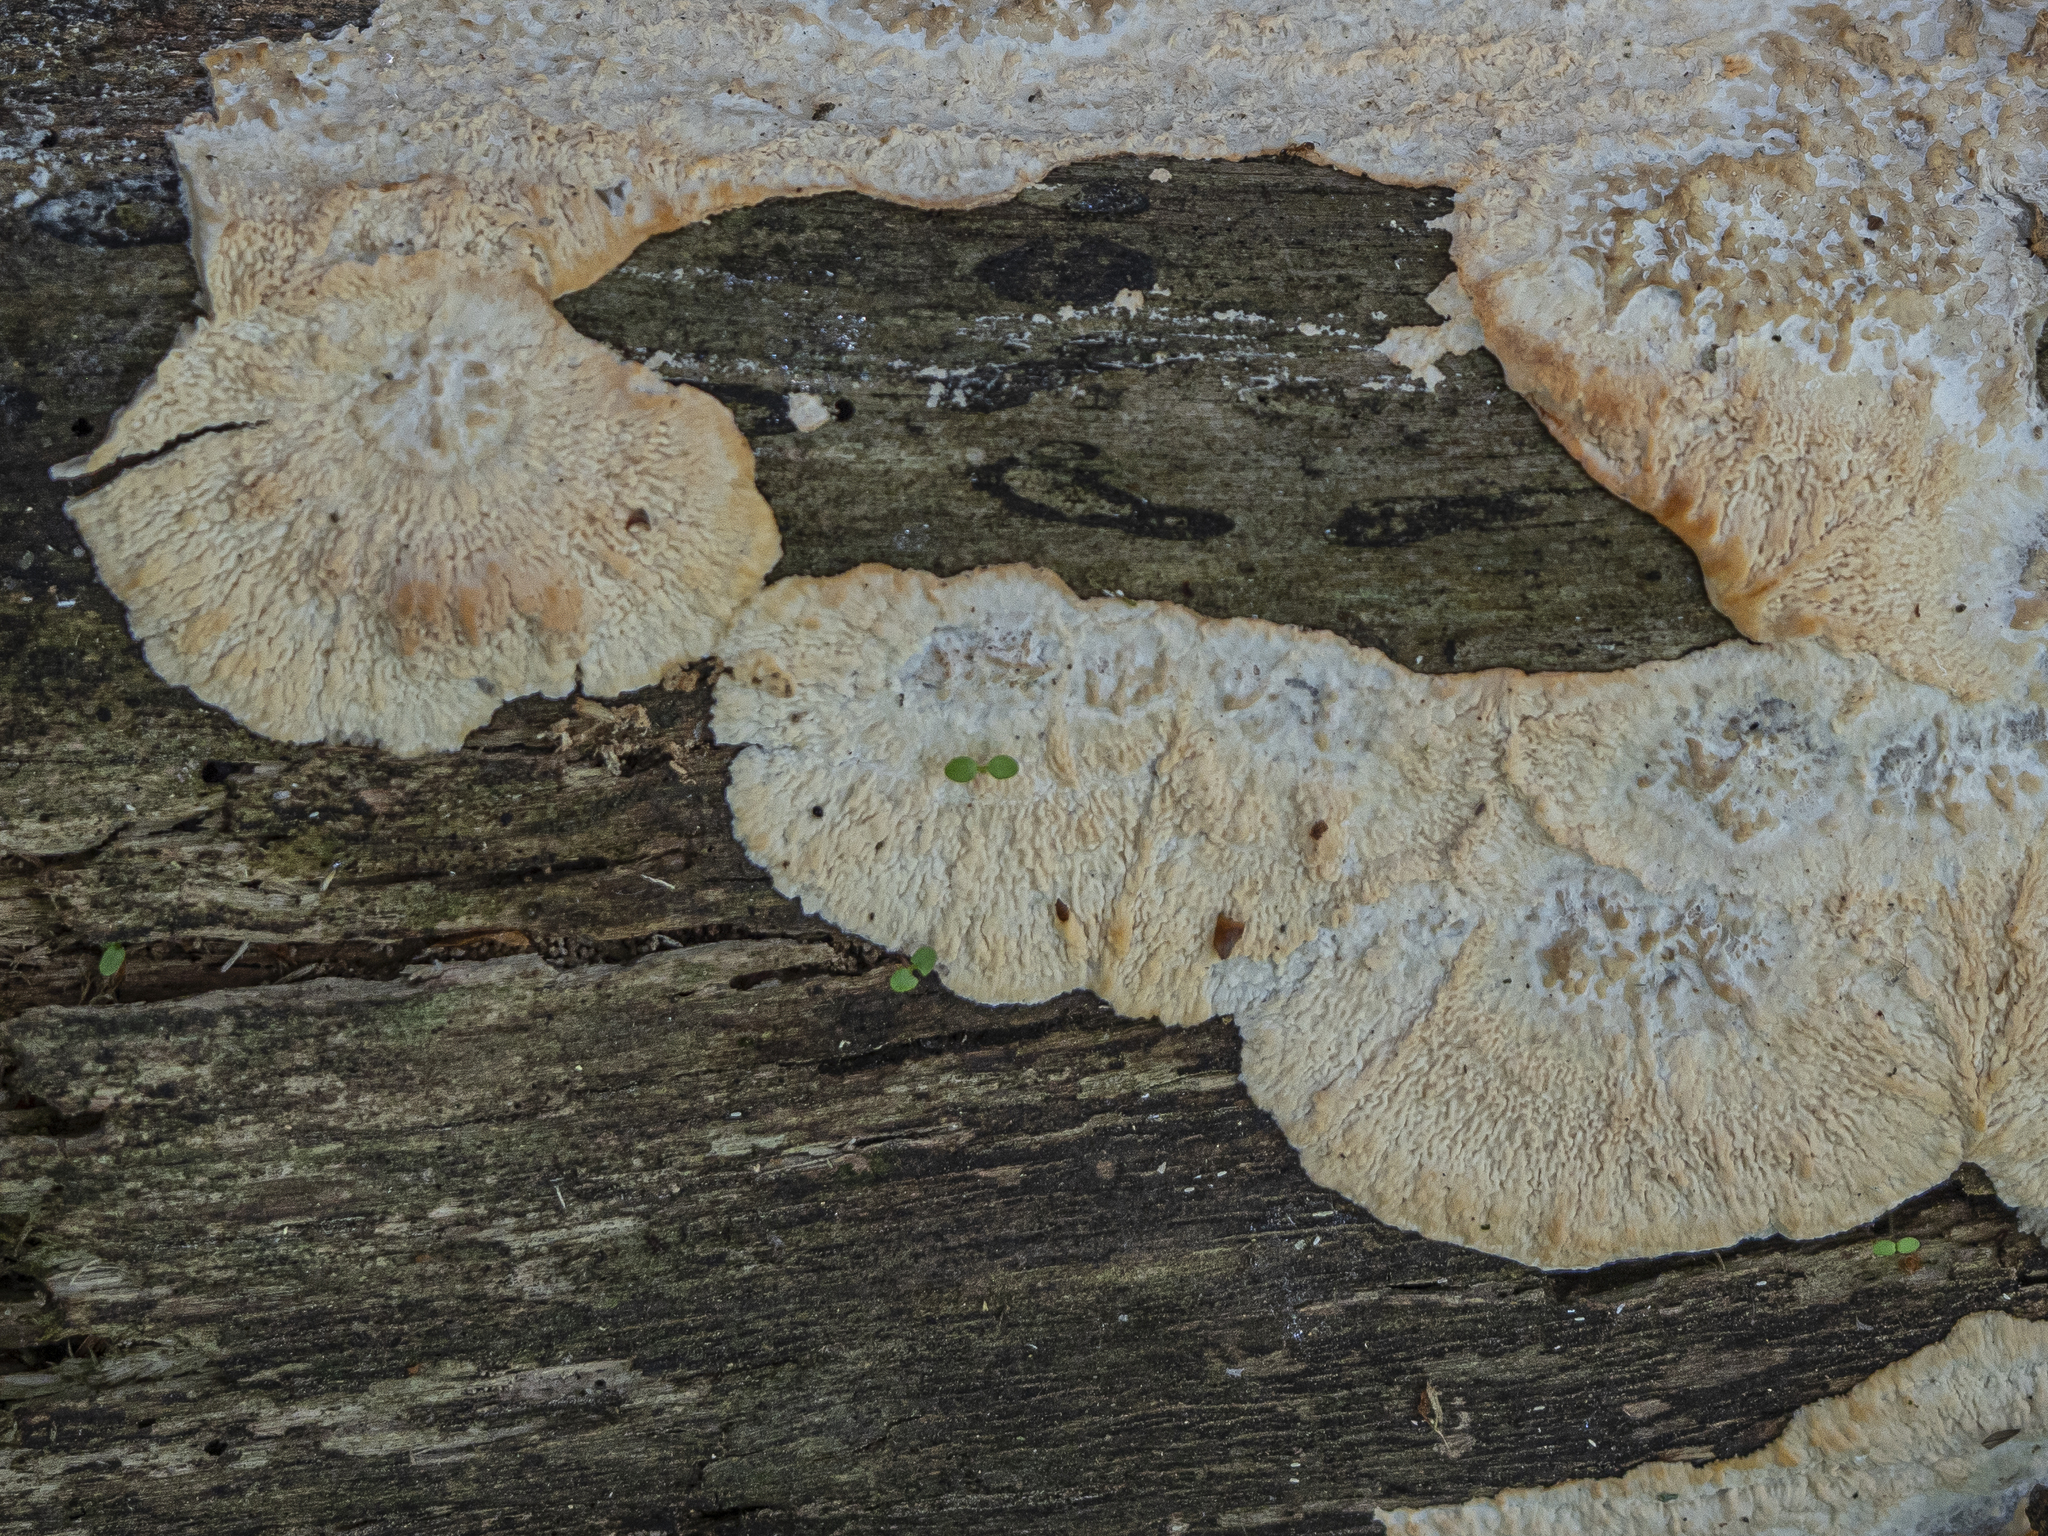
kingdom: Fungi
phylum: Basidiomycota
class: Agaricomycetes
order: Polyporales
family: Meruliaceae
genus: Phlebia
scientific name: Phlebia radiata
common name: Wrinkled crust
